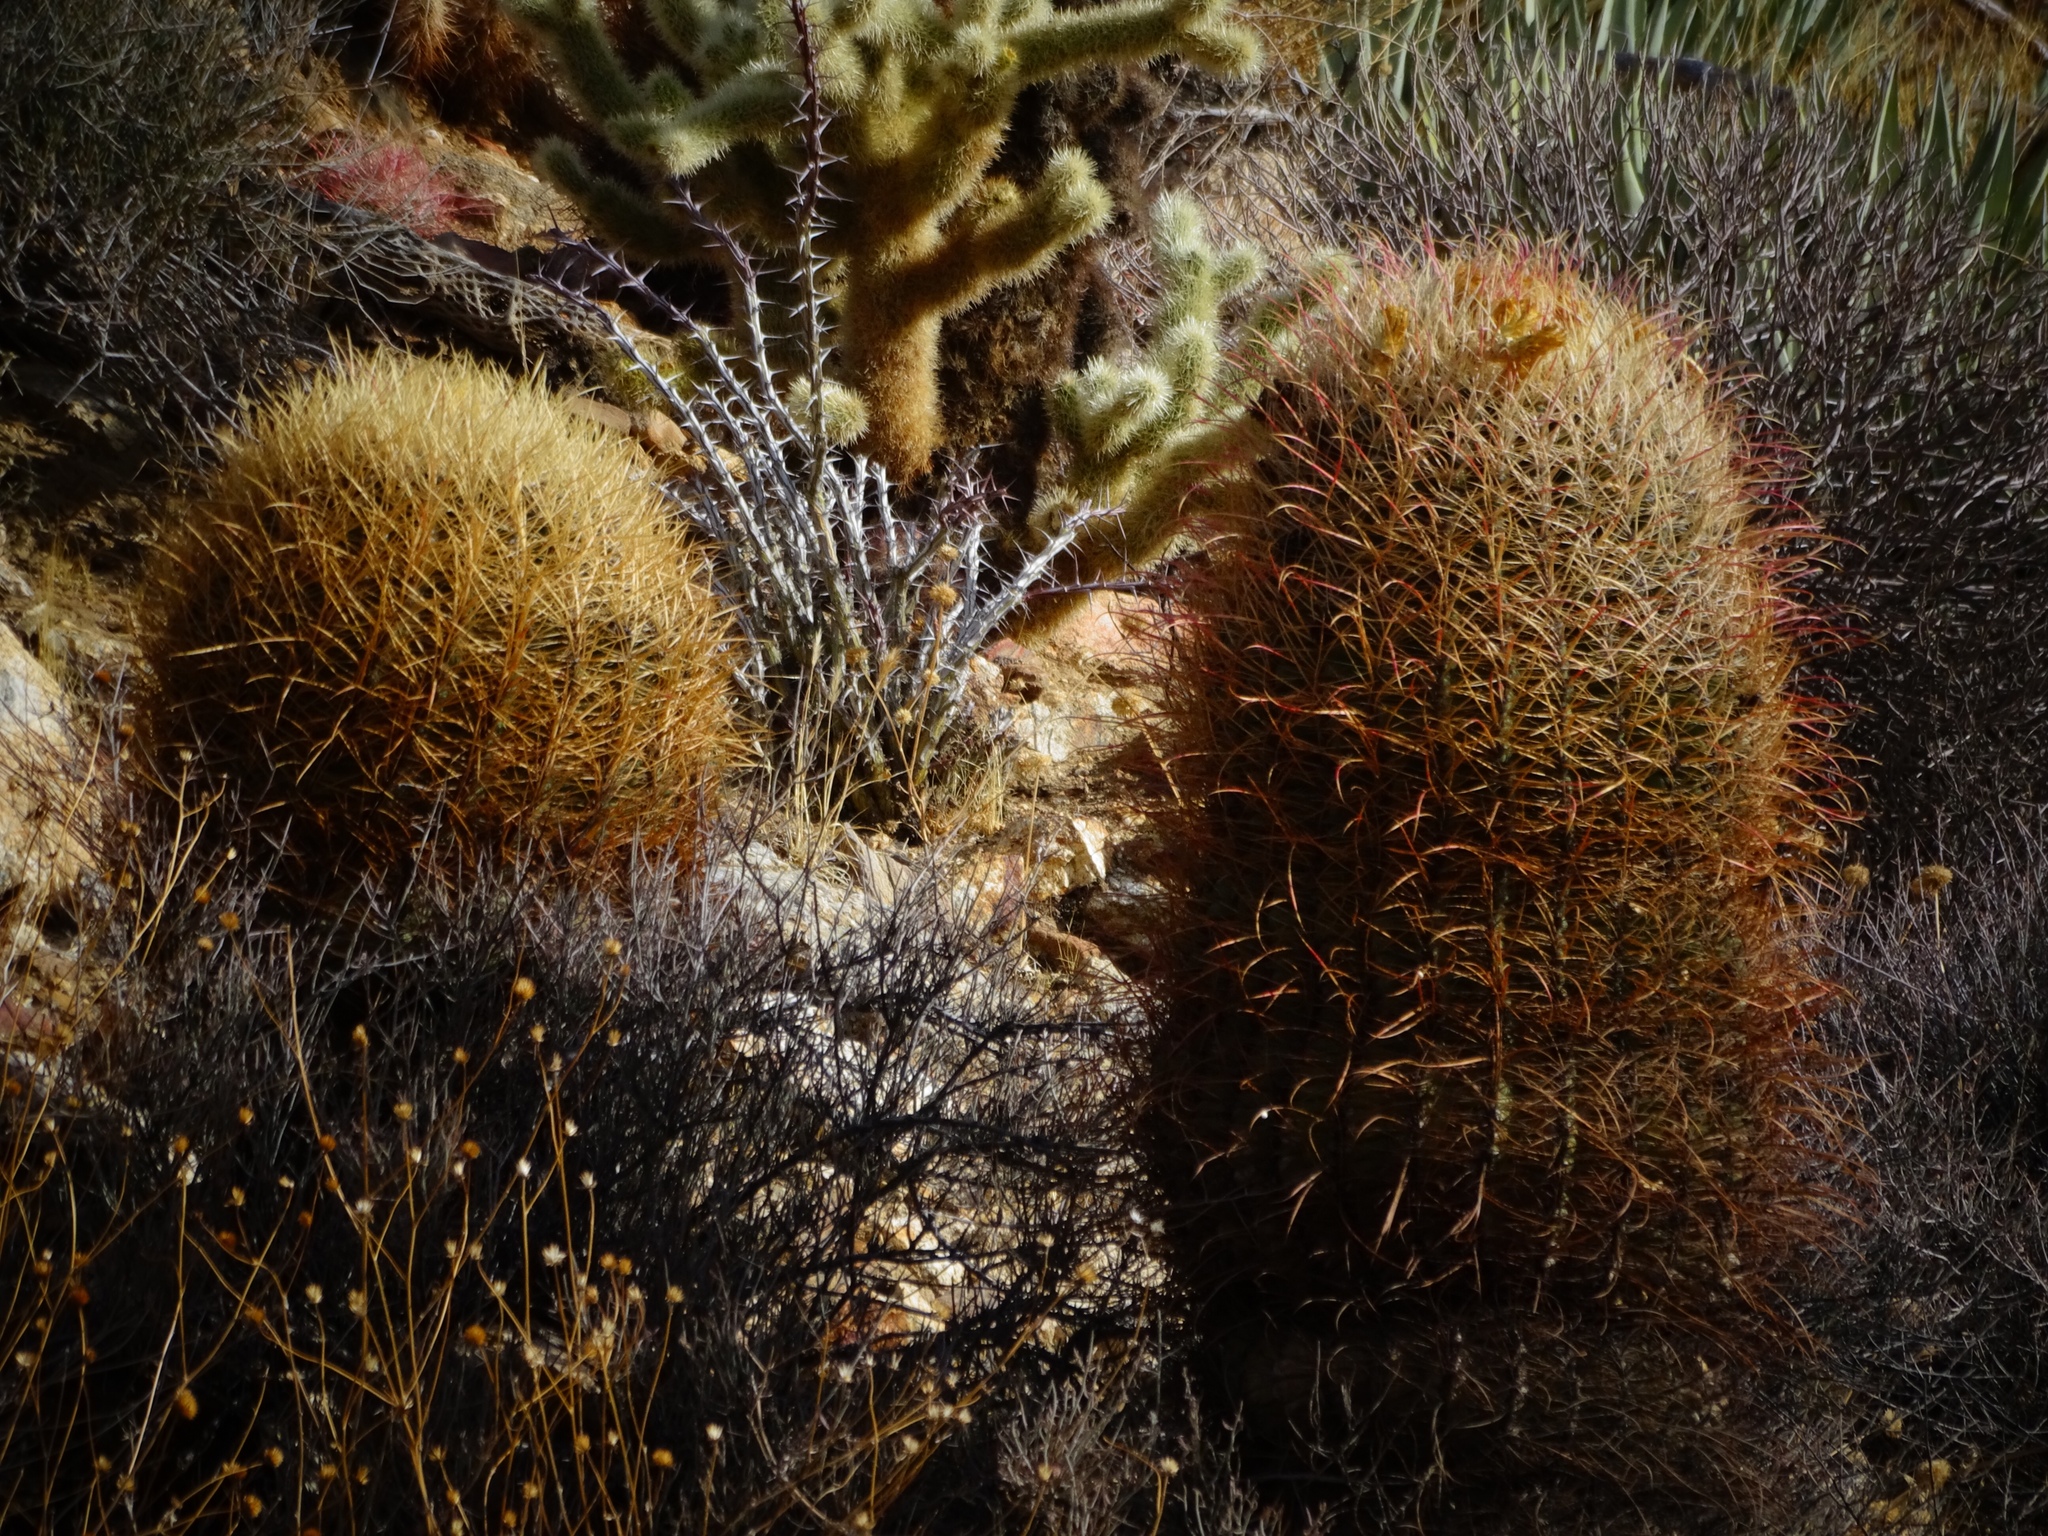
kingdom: Plantae
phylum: Tracheophyta
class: Magnoliopsida
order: Caryophyllales
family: Cactaceae
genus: Ferocactus
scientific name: Ferocactus cylindraceus
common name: California barrel cactus
